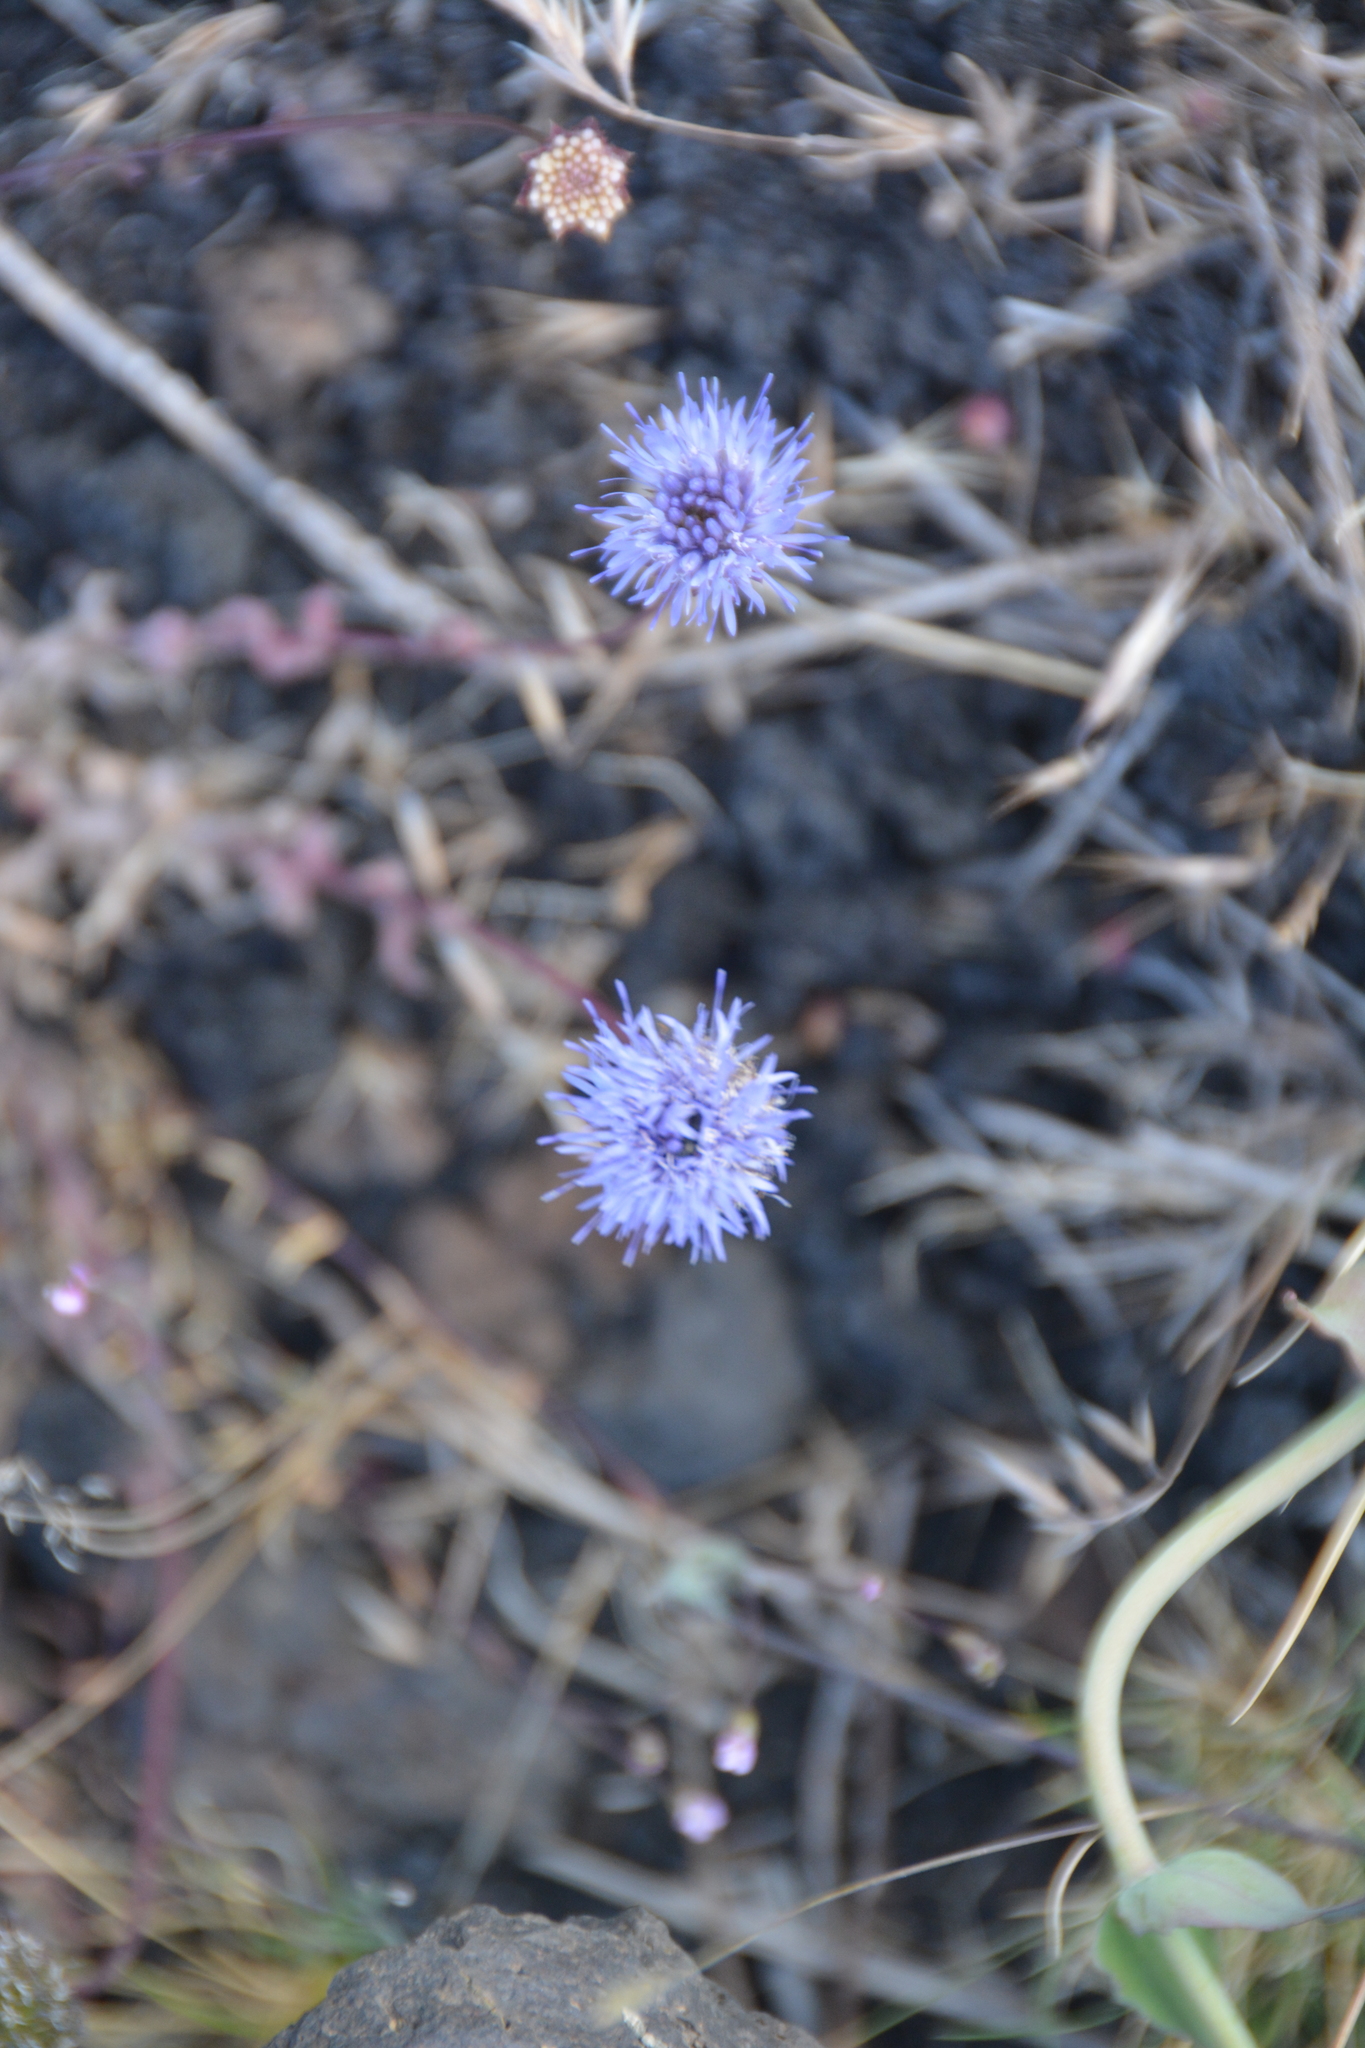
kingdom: Plantae
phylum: Tracheophyta
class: Magnoliopsida
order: Asterales
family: Campanulaceae
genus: Jasione
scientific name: Jasione montana
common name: Sheep's-bit
